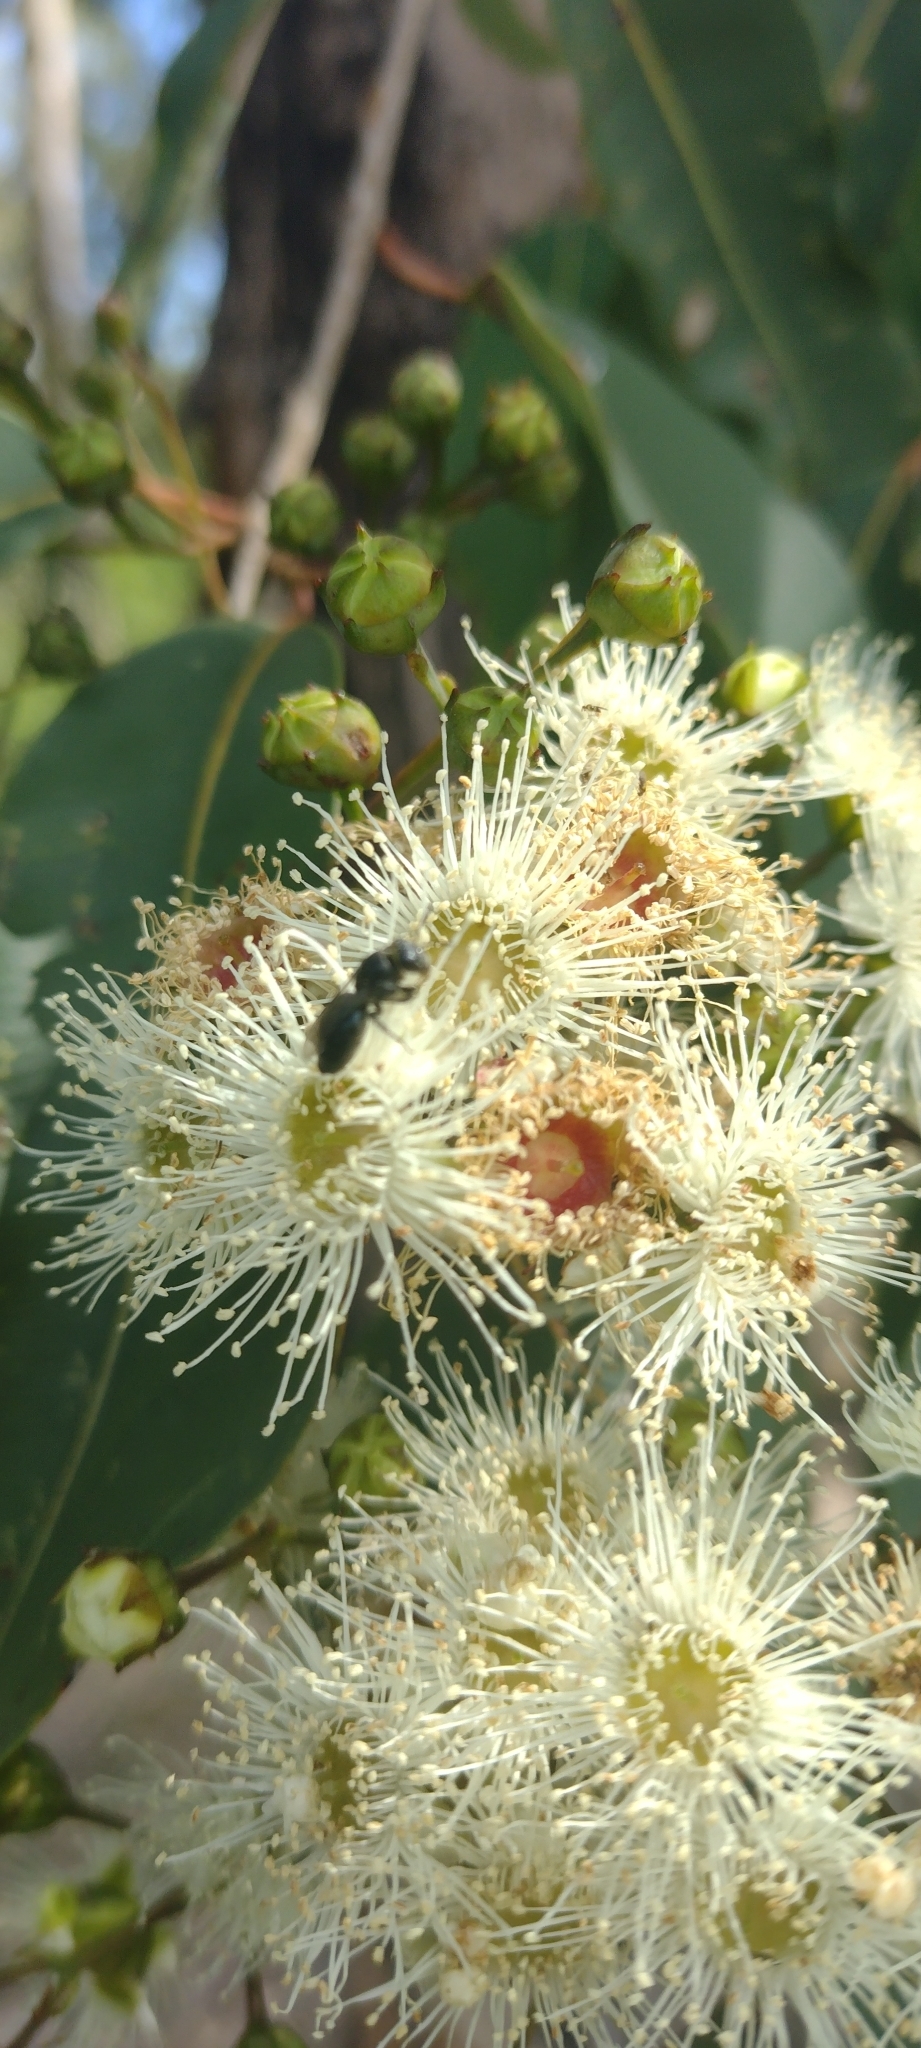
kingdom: Plantae
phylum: Tracheophyta
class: Magnoliopsida
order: Myrtales
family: Myrtaceae
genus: Angophora
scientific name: Angophora floribunda
